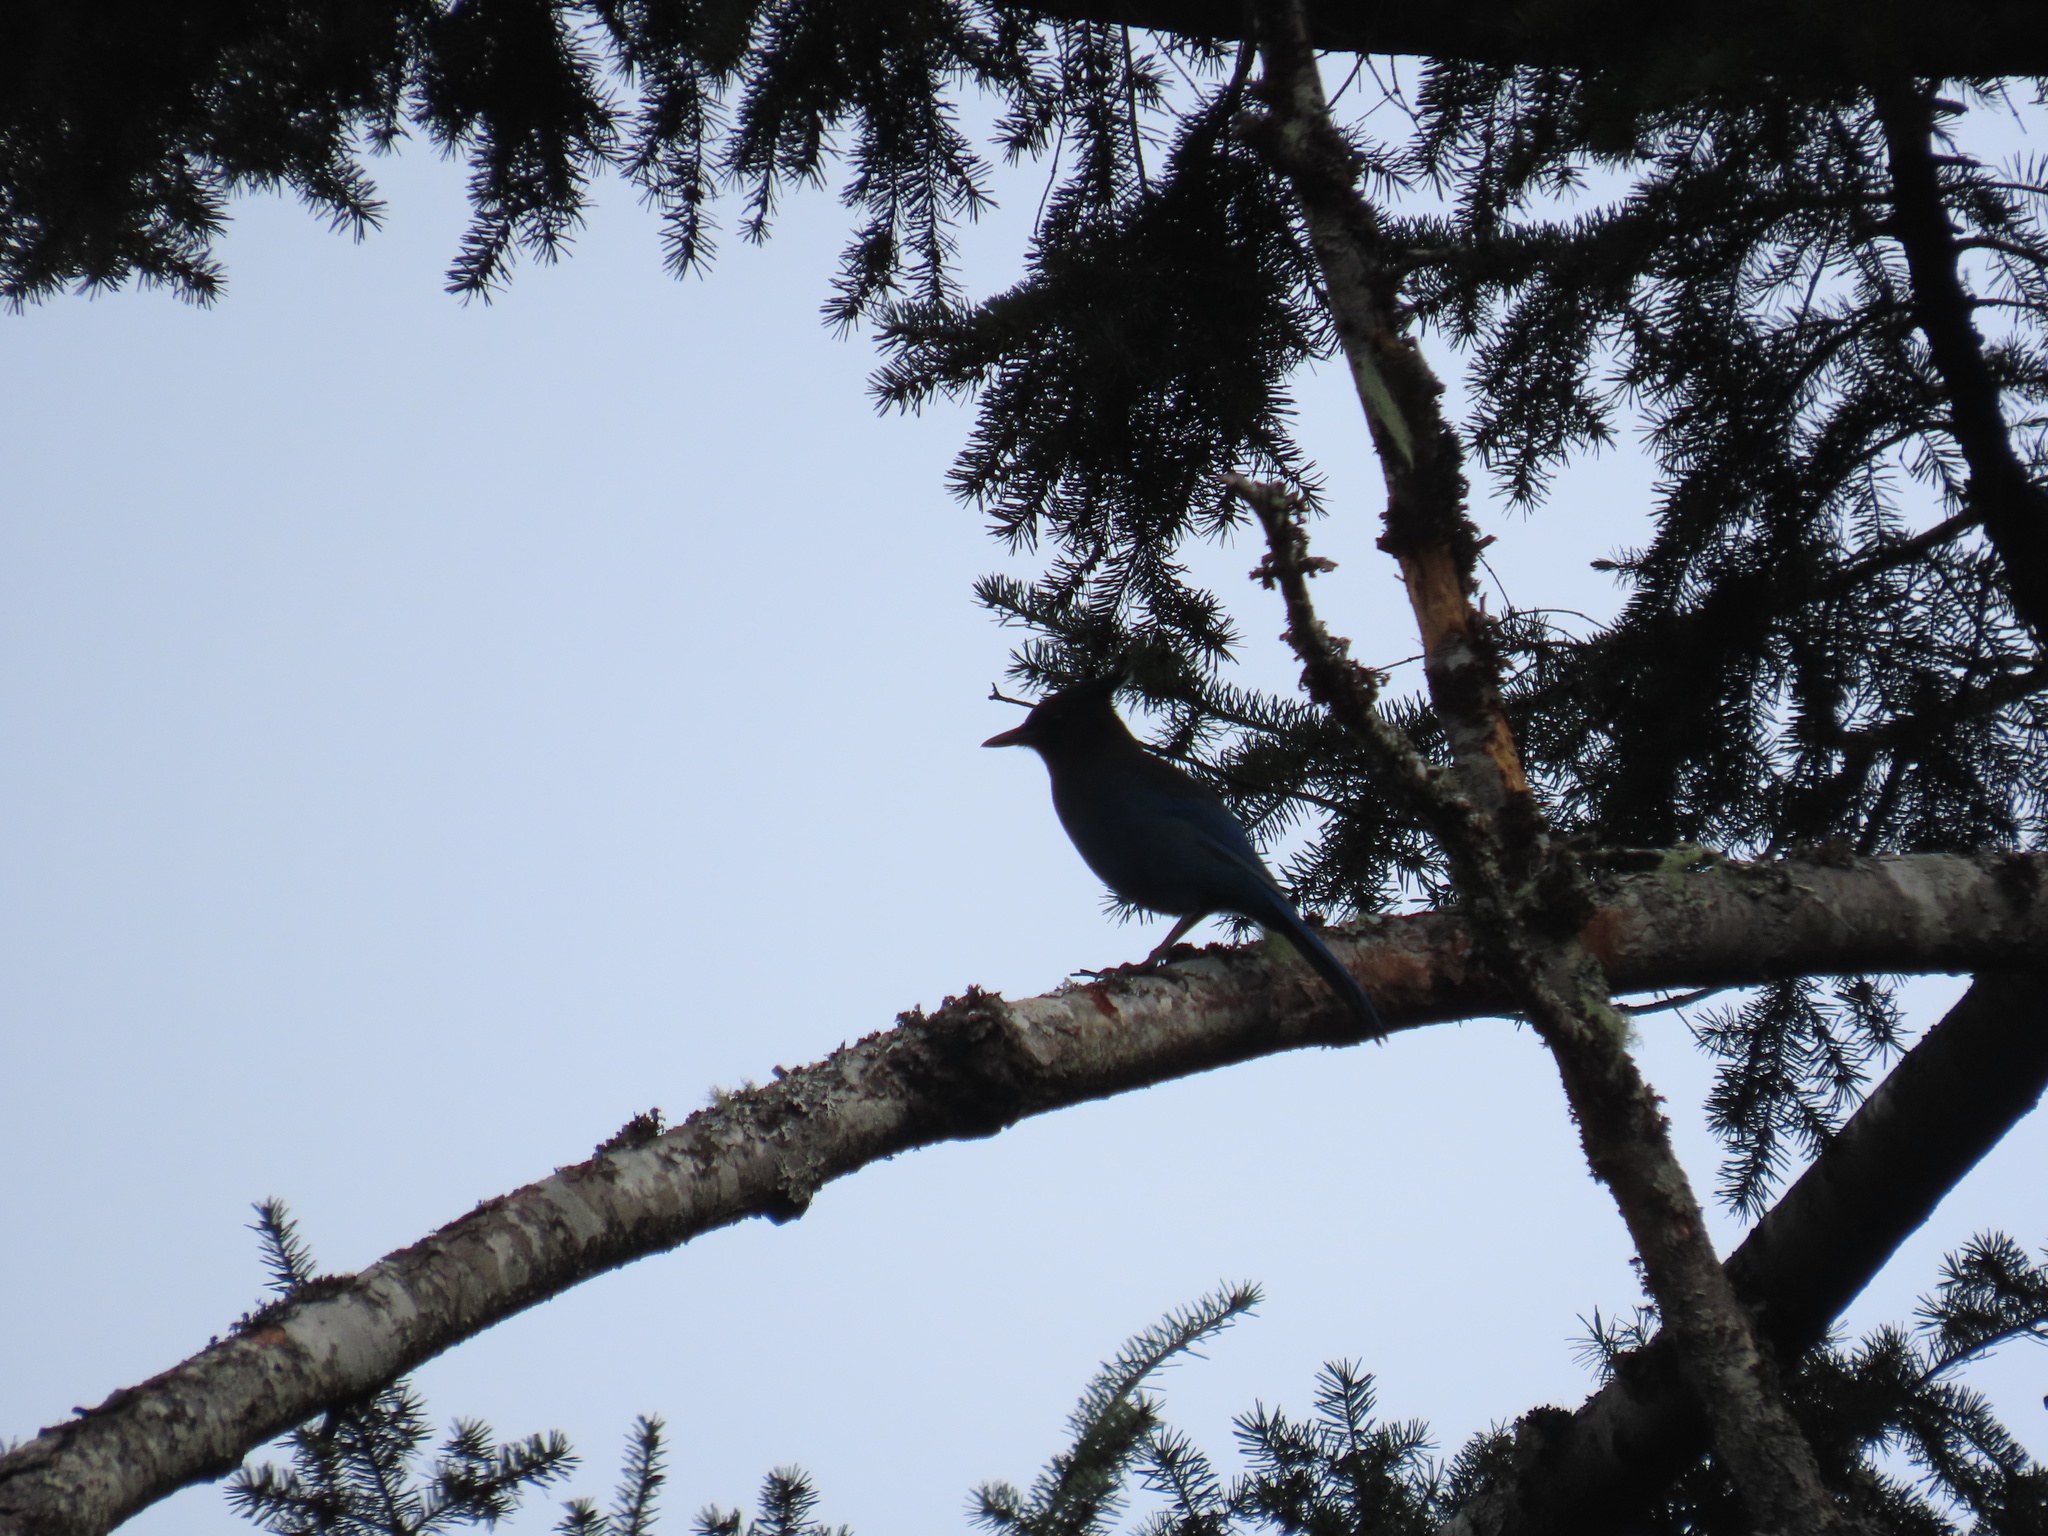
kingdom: Animalia
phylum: Chordata
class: Aves
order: Passeriformes
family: Corvidae
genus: Cyanocitta
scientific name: Cyanocitta stelleri
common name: Steller's jay
